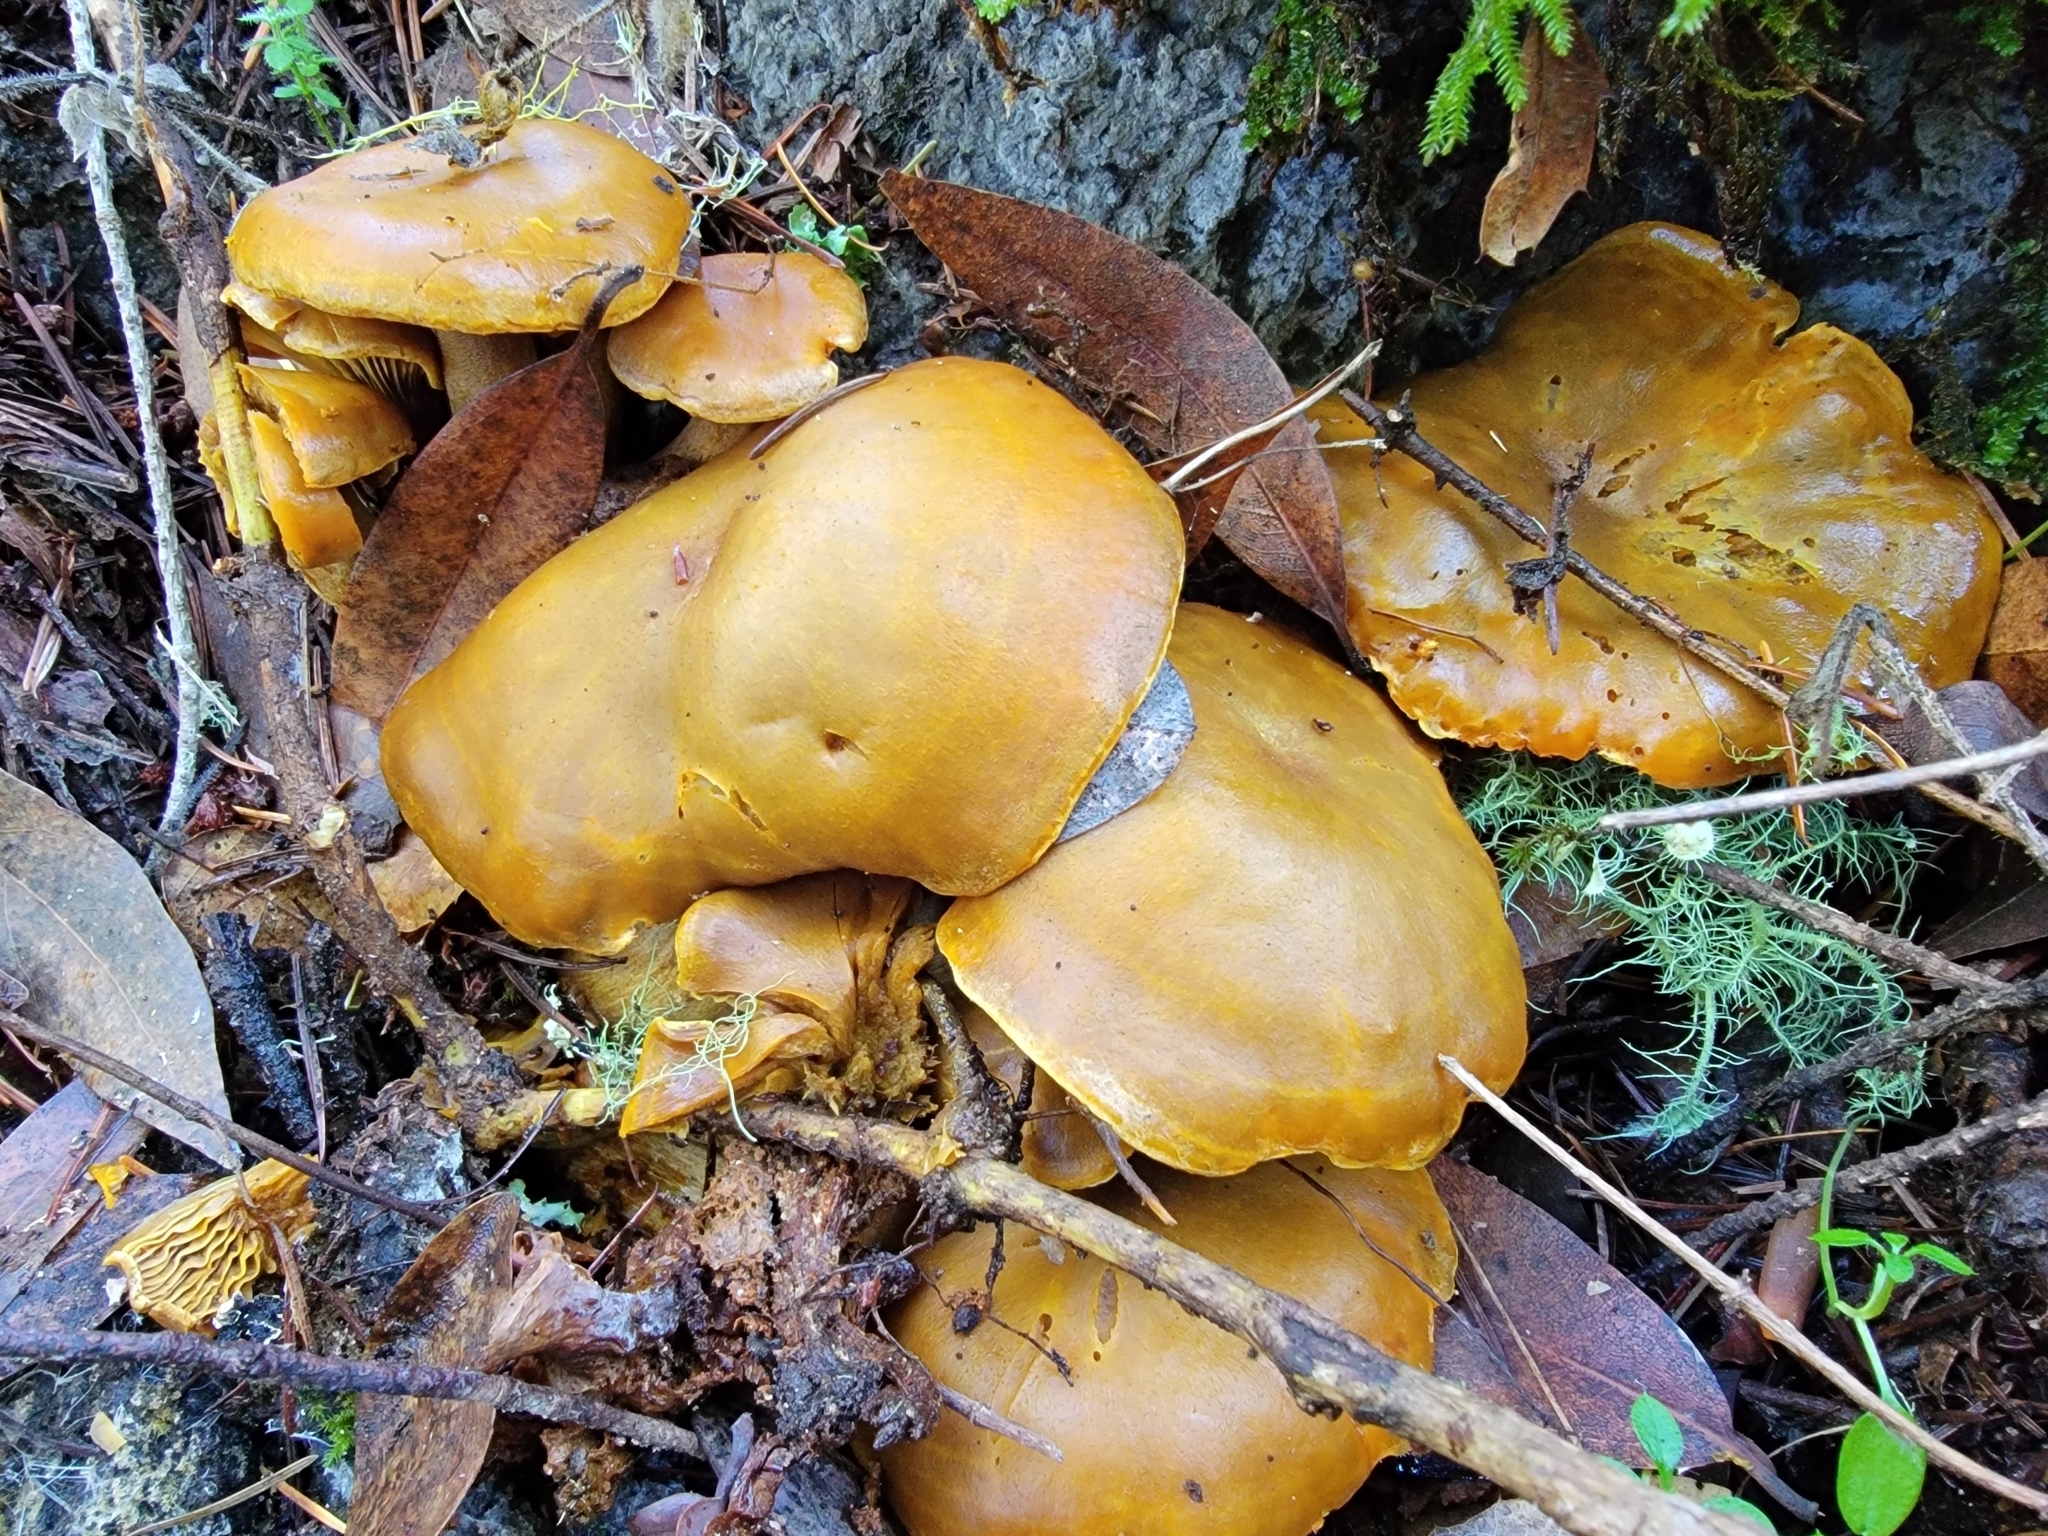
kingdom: Fungi
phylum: Basidiomycota
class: Agaricomycetes
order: Agaricales
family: Omphalotaceae
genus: Omphalotus
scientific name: Omphalotus olivascens
